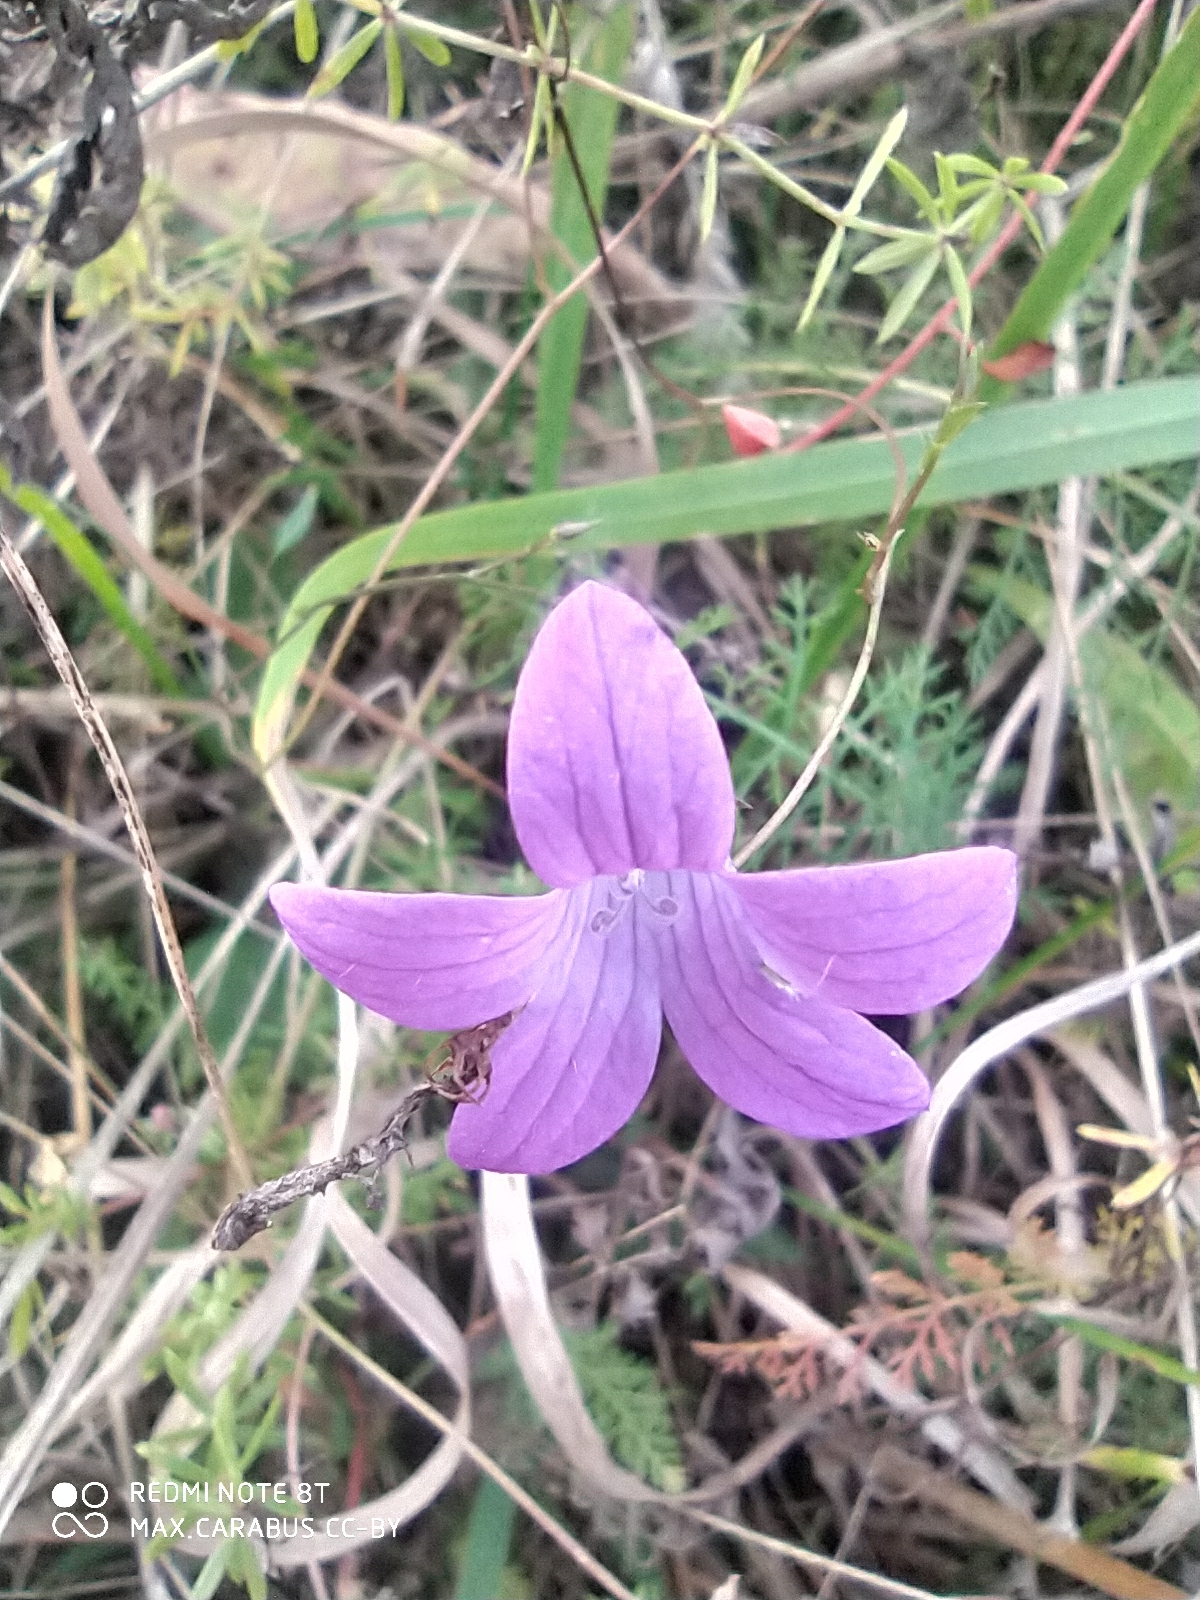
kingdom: Plantae
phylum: Tracheophyta
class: Magnoliopsida
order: Asterales
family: Campanulaceae
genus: Campanula
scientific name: Campanula patula
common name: Spreading bellflower
